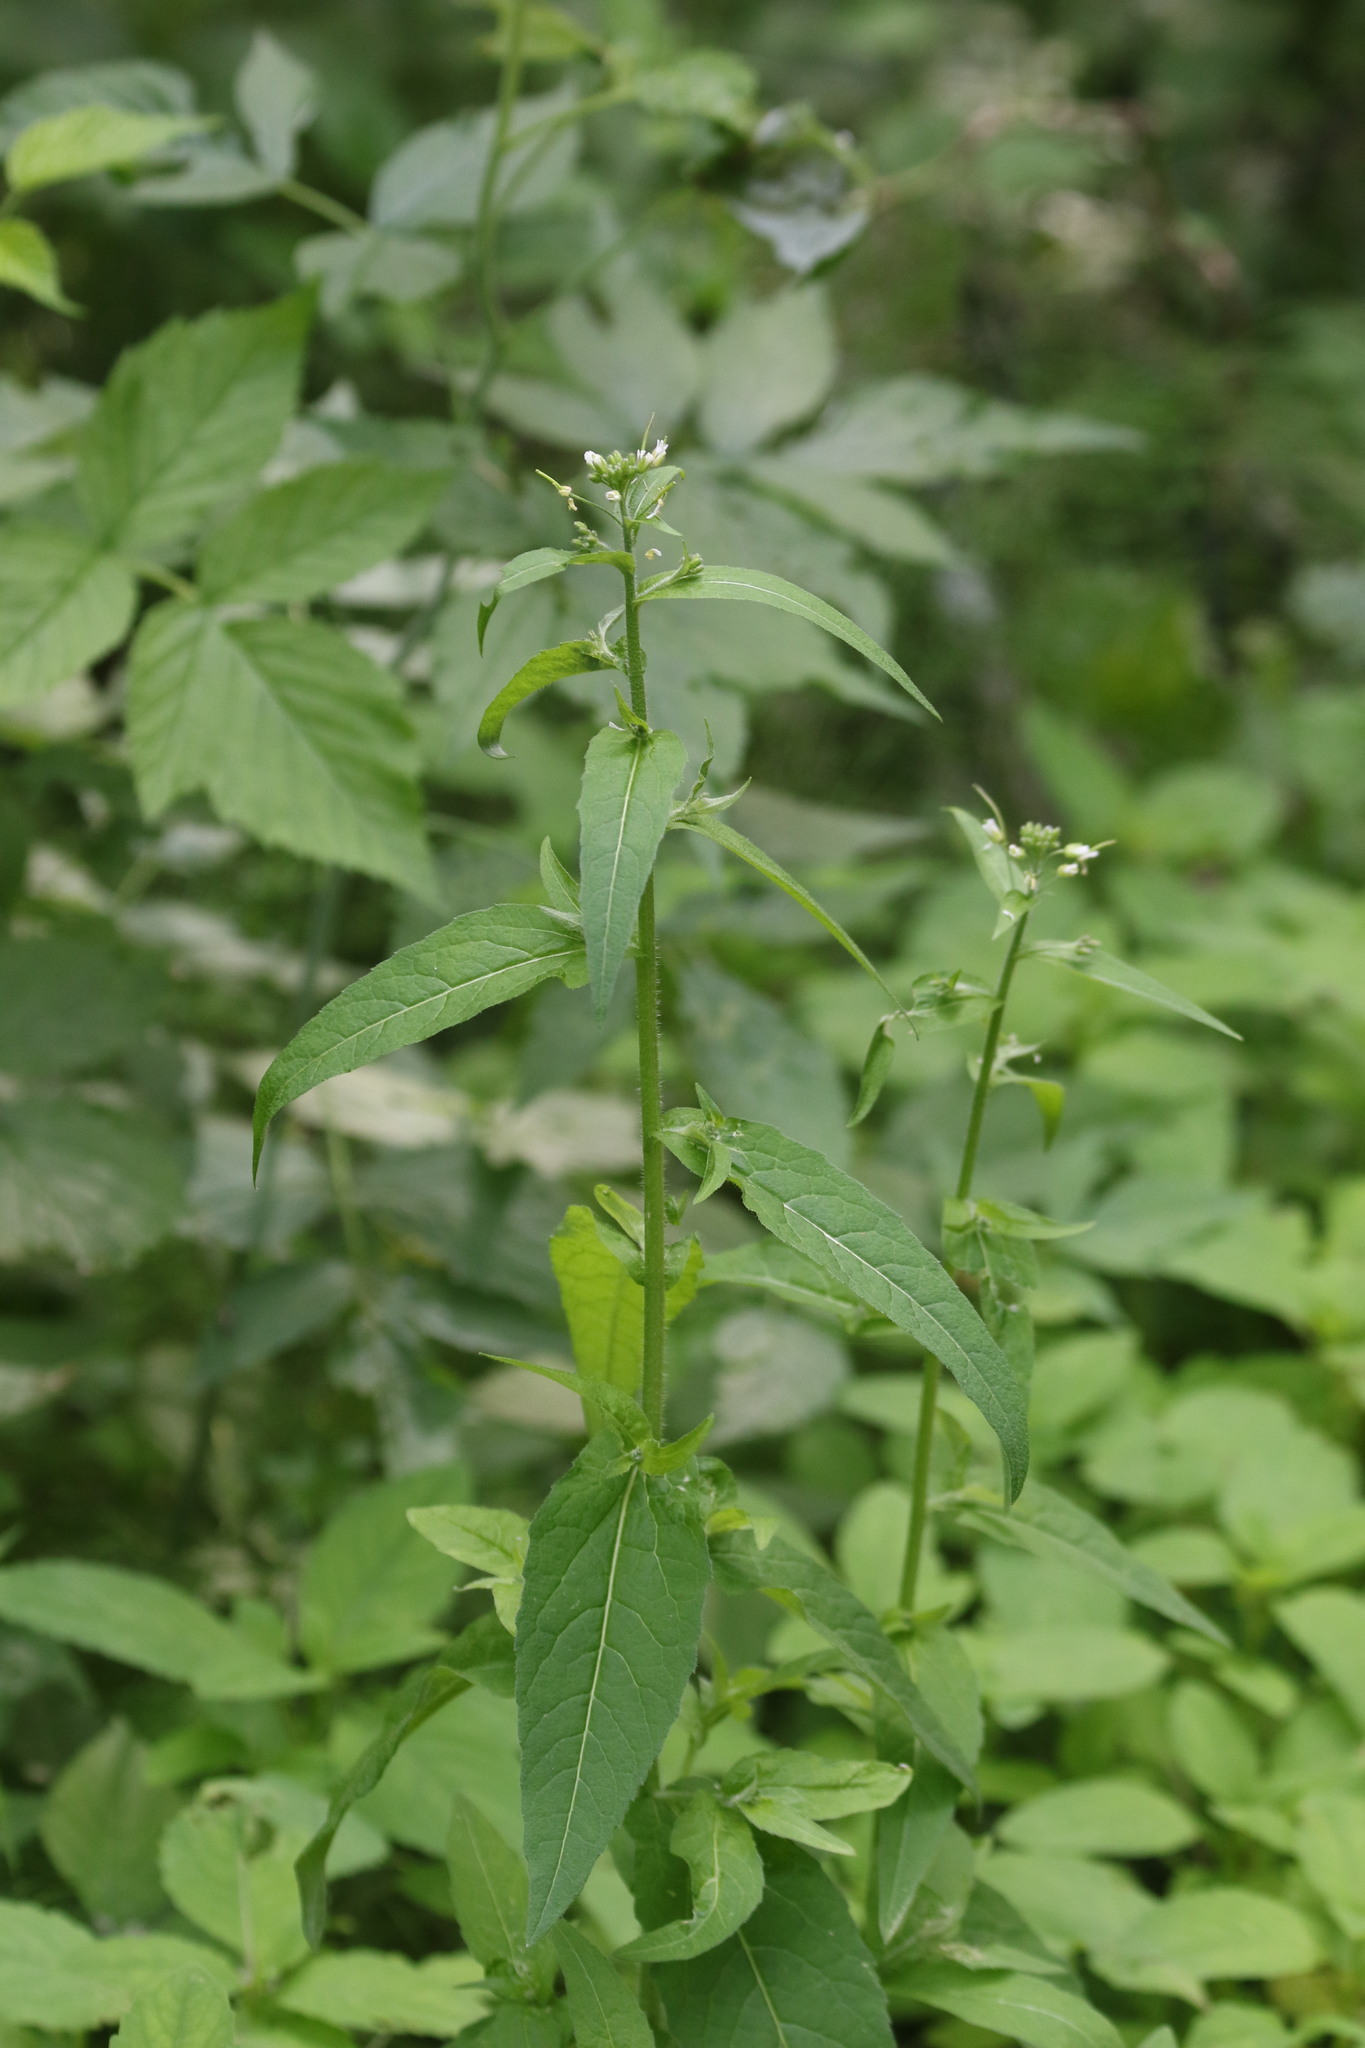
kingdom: Plantae
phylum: Tracheophyta
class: Magnoliopsida
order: Brassicales
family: Brassicaceae
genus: Catolobus
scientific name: Catolobus pendulus
